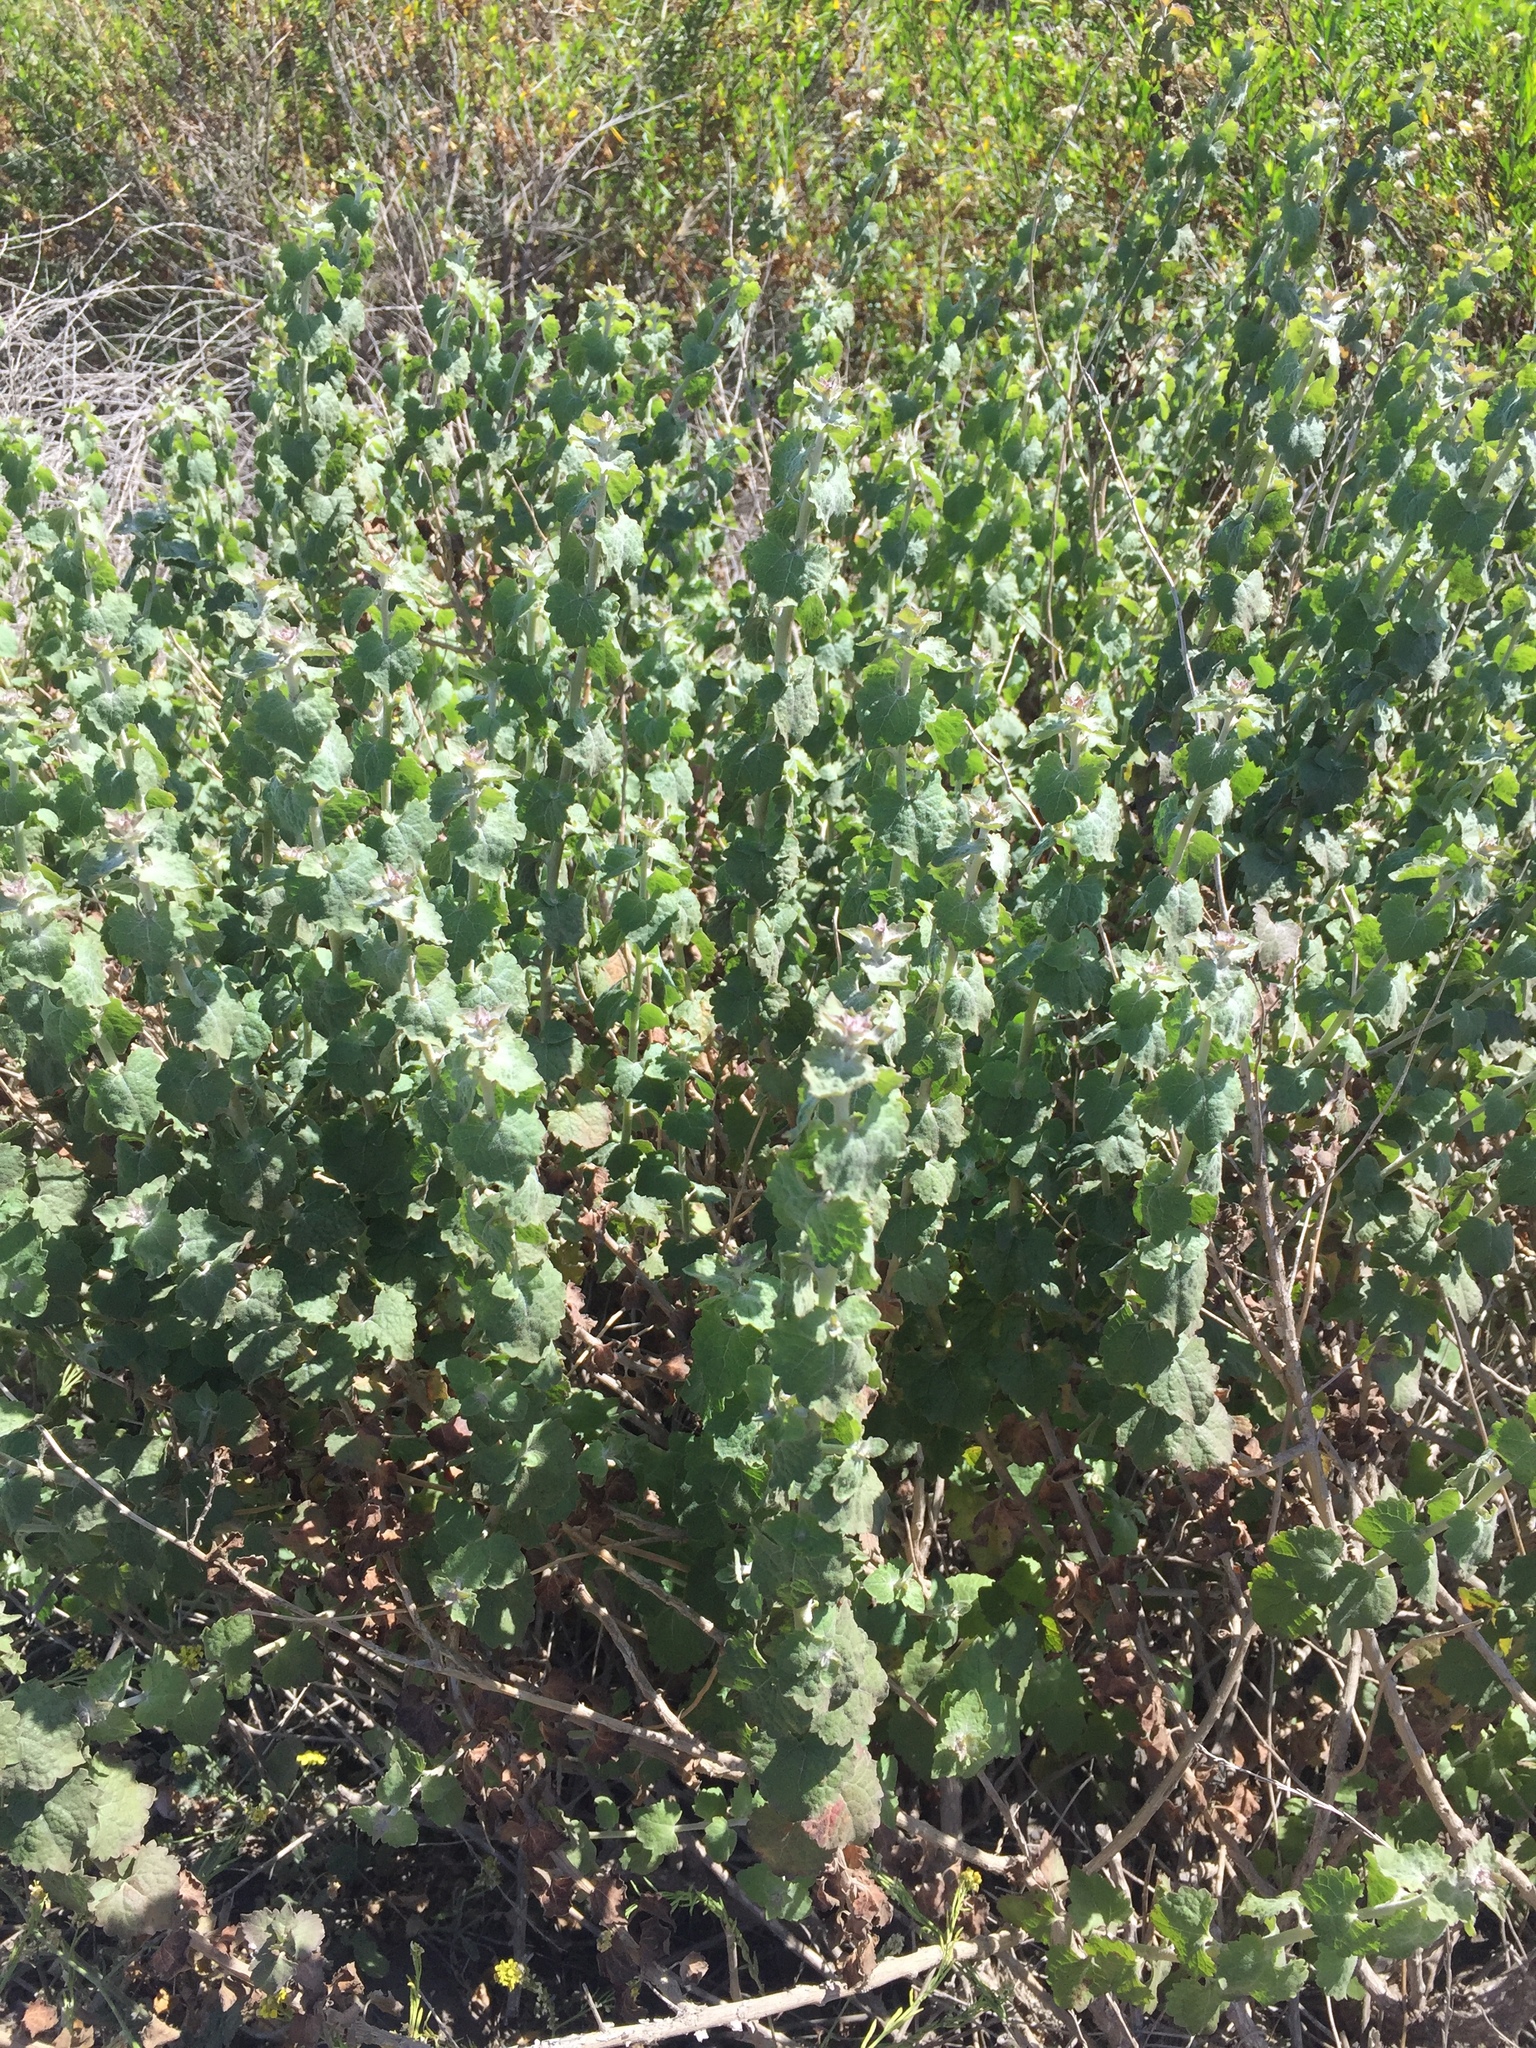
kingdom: Plantae
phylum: Tracheophyta
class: Magnoliopsida
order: Asterales
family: Asteraceae
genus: Brickellia
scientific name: Brickellia californica
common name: California brickellbush
